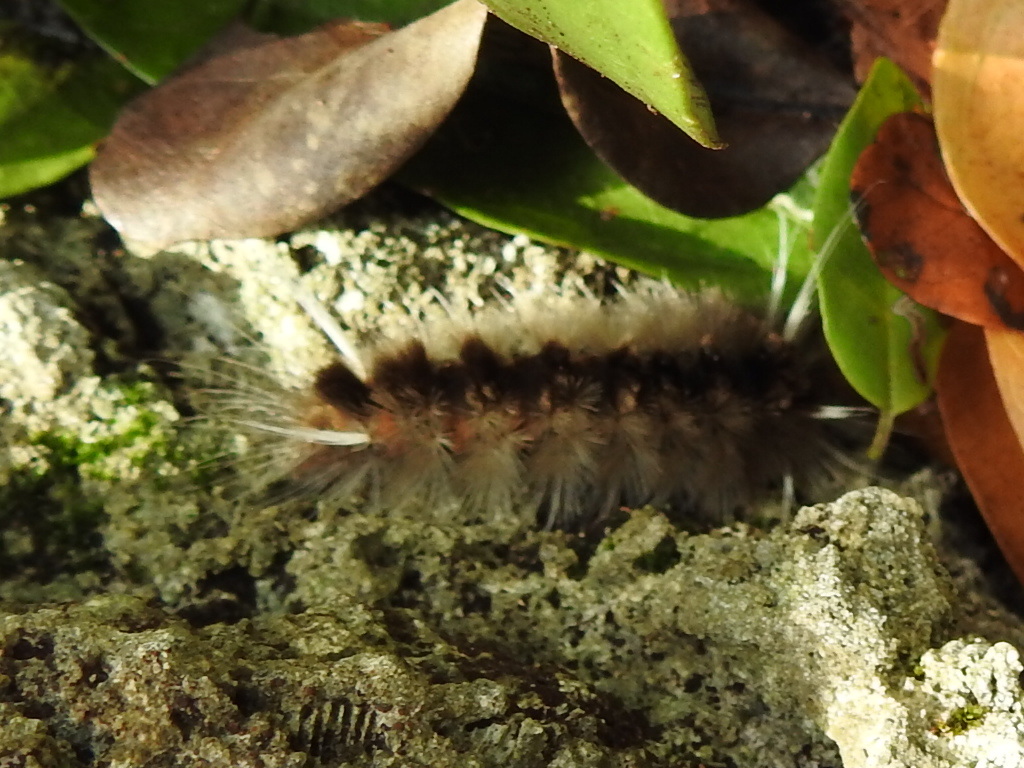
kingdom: Animalia
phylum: Arthropoda
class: Insecta
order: Lepidoptera
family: Erebidae
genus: Halysidota
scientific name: Halysidota cinctipes
